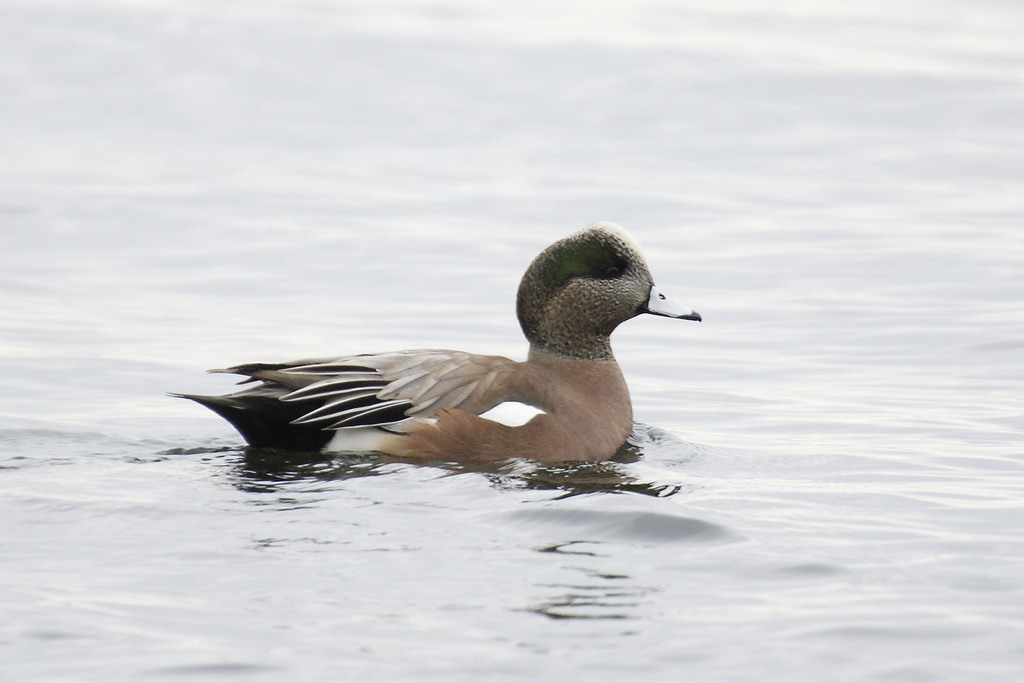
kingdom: Animalia
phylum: Chordata
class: Aves
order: Anseriformes
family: Anatidae
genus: Mareca
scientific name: Mareca americana
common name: American wigeon
